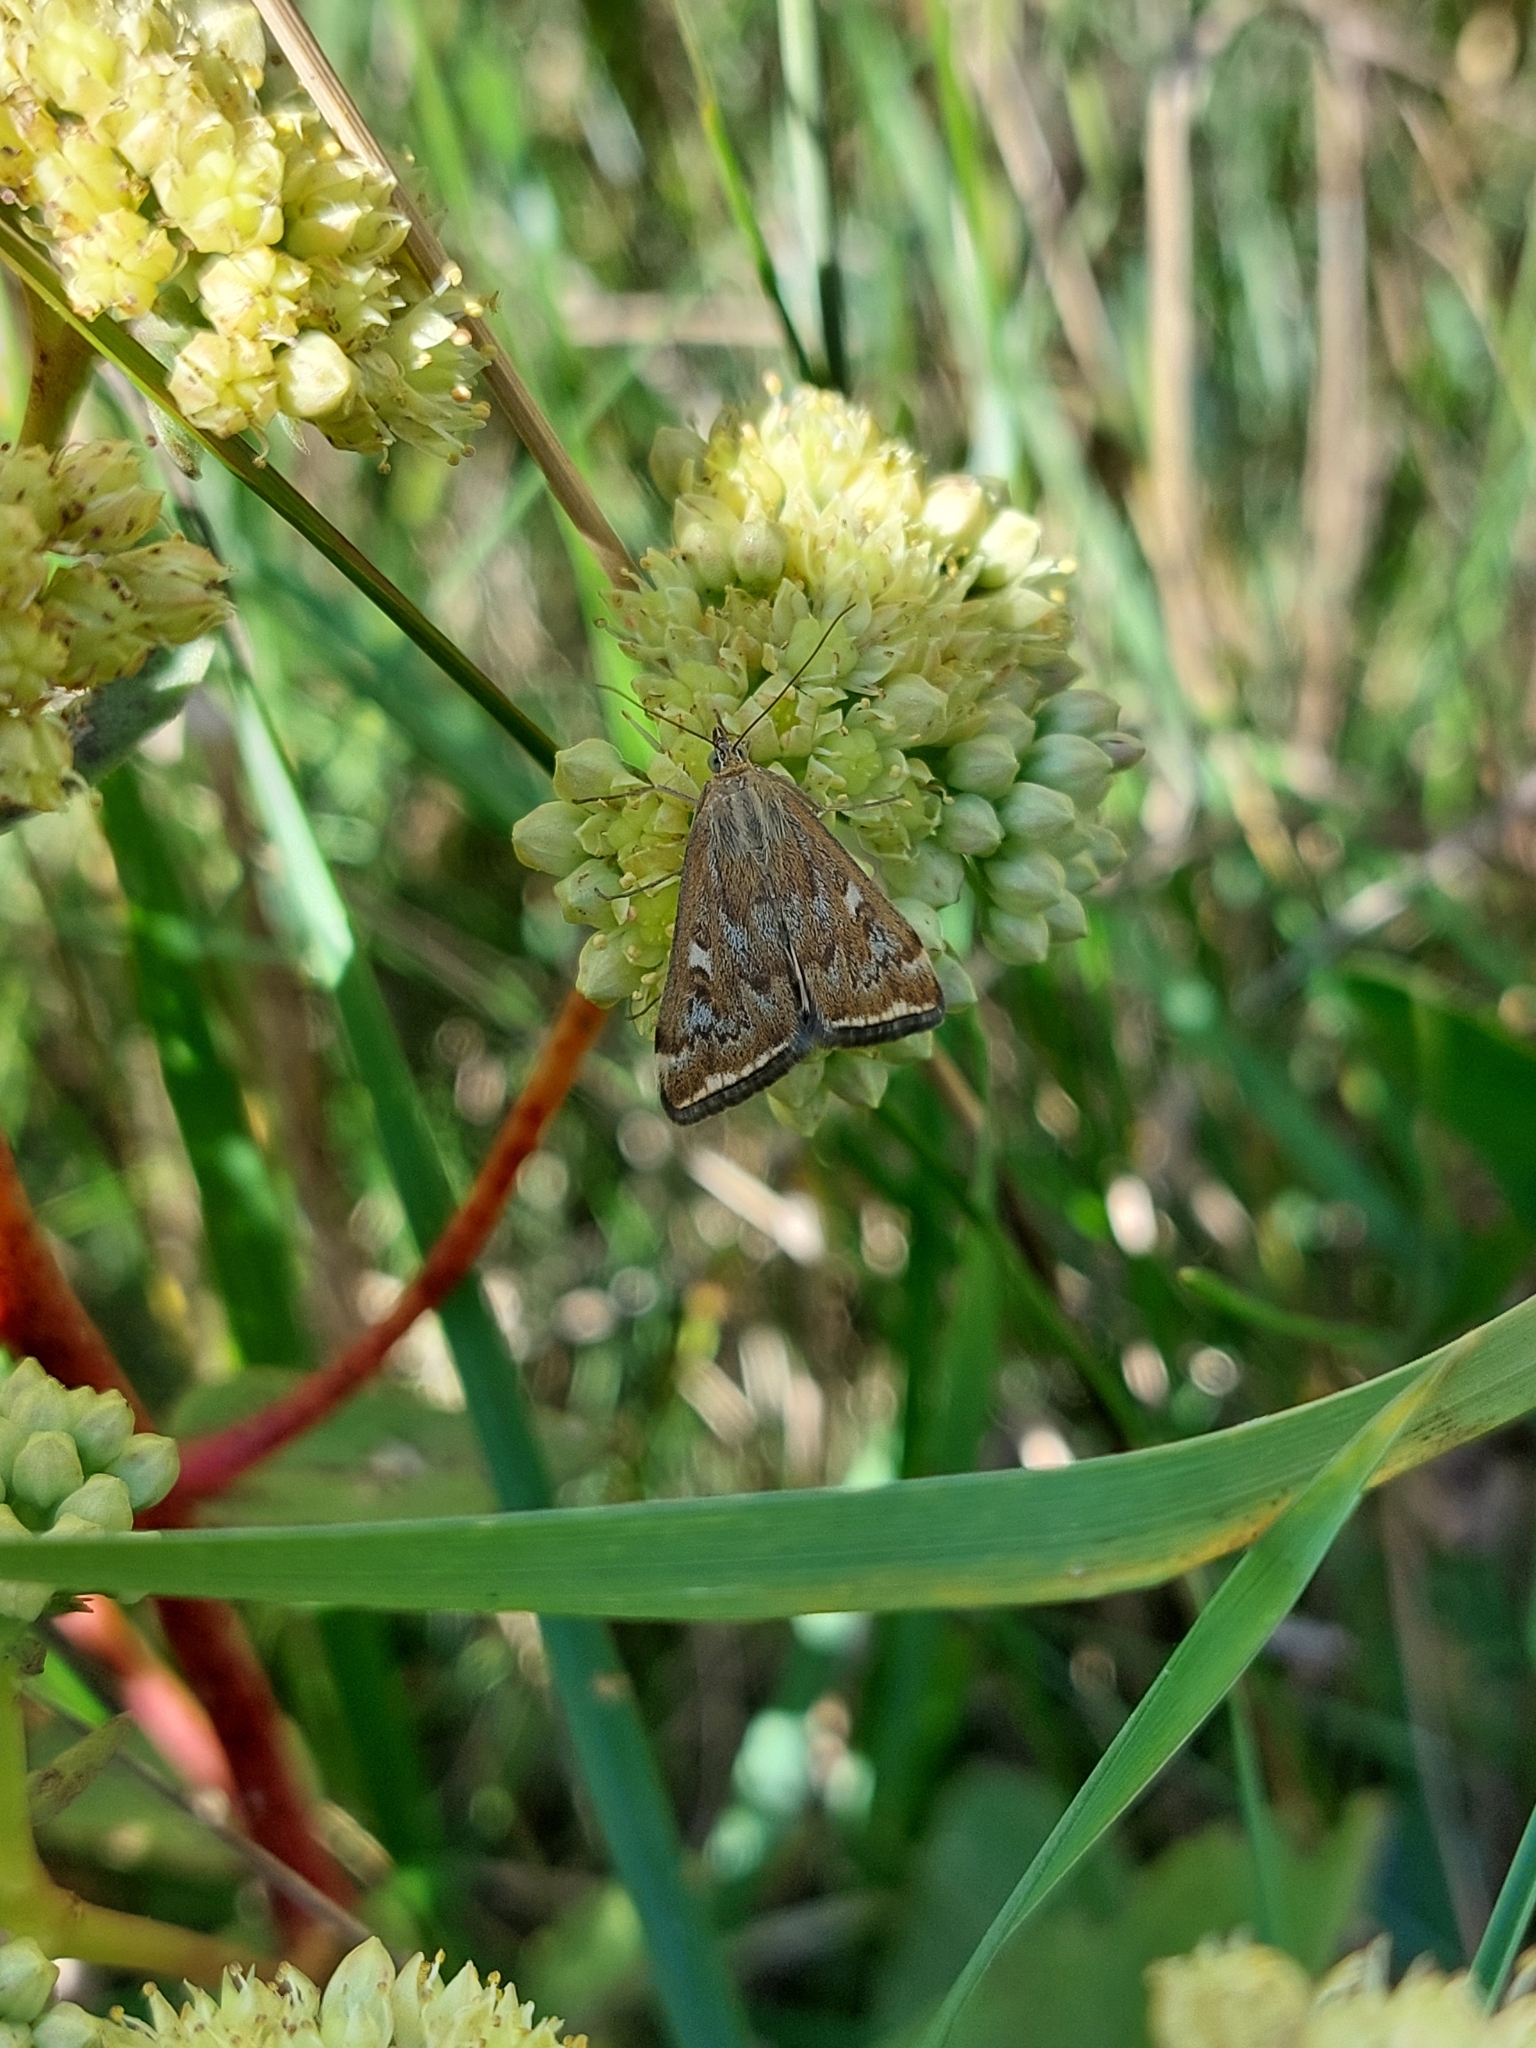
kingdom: Animalia
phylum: Arthropoda
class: Insecta
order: Lepidoptera
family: Crambidae
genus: Loxostege
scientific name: Loxostege sticticalis
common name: Crambid moth
